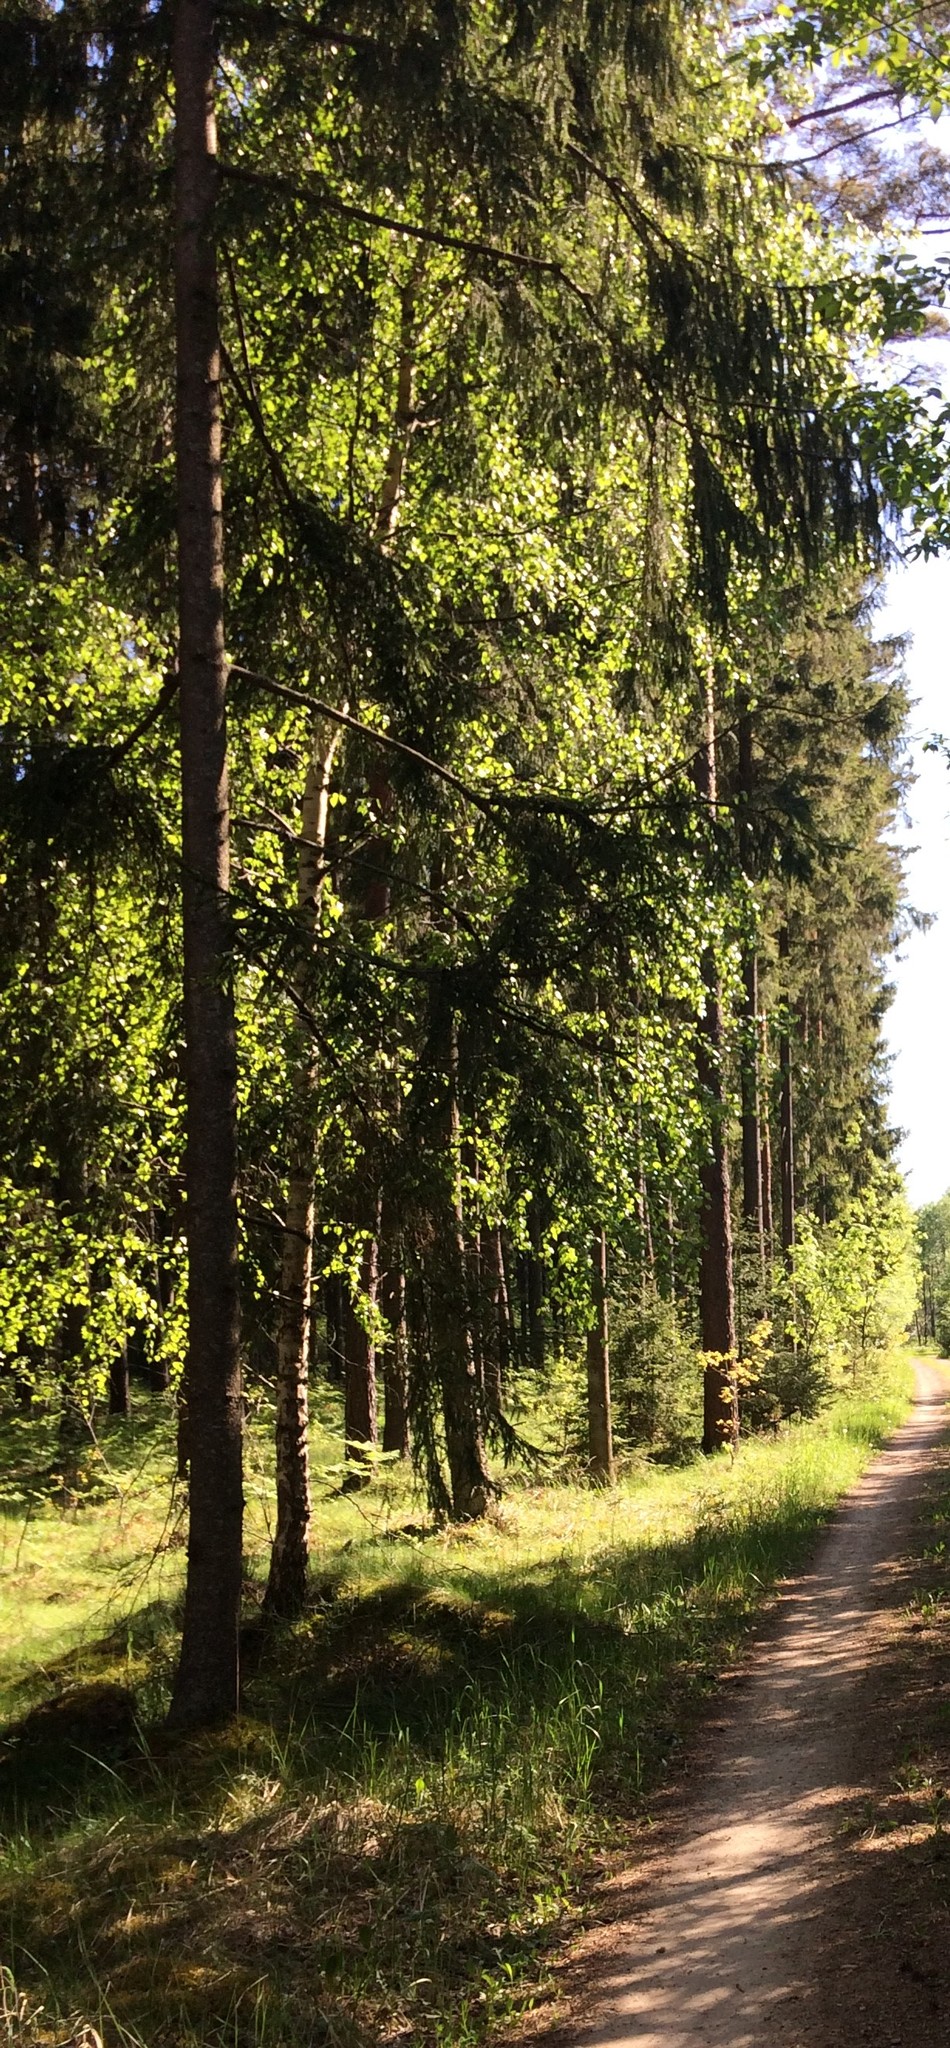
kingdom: Plantae
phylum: Tracheophyta
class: Pinopsida
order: Pinales
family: Pinaceae
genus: Picea
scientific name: Picea abies
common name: Norway spruce
